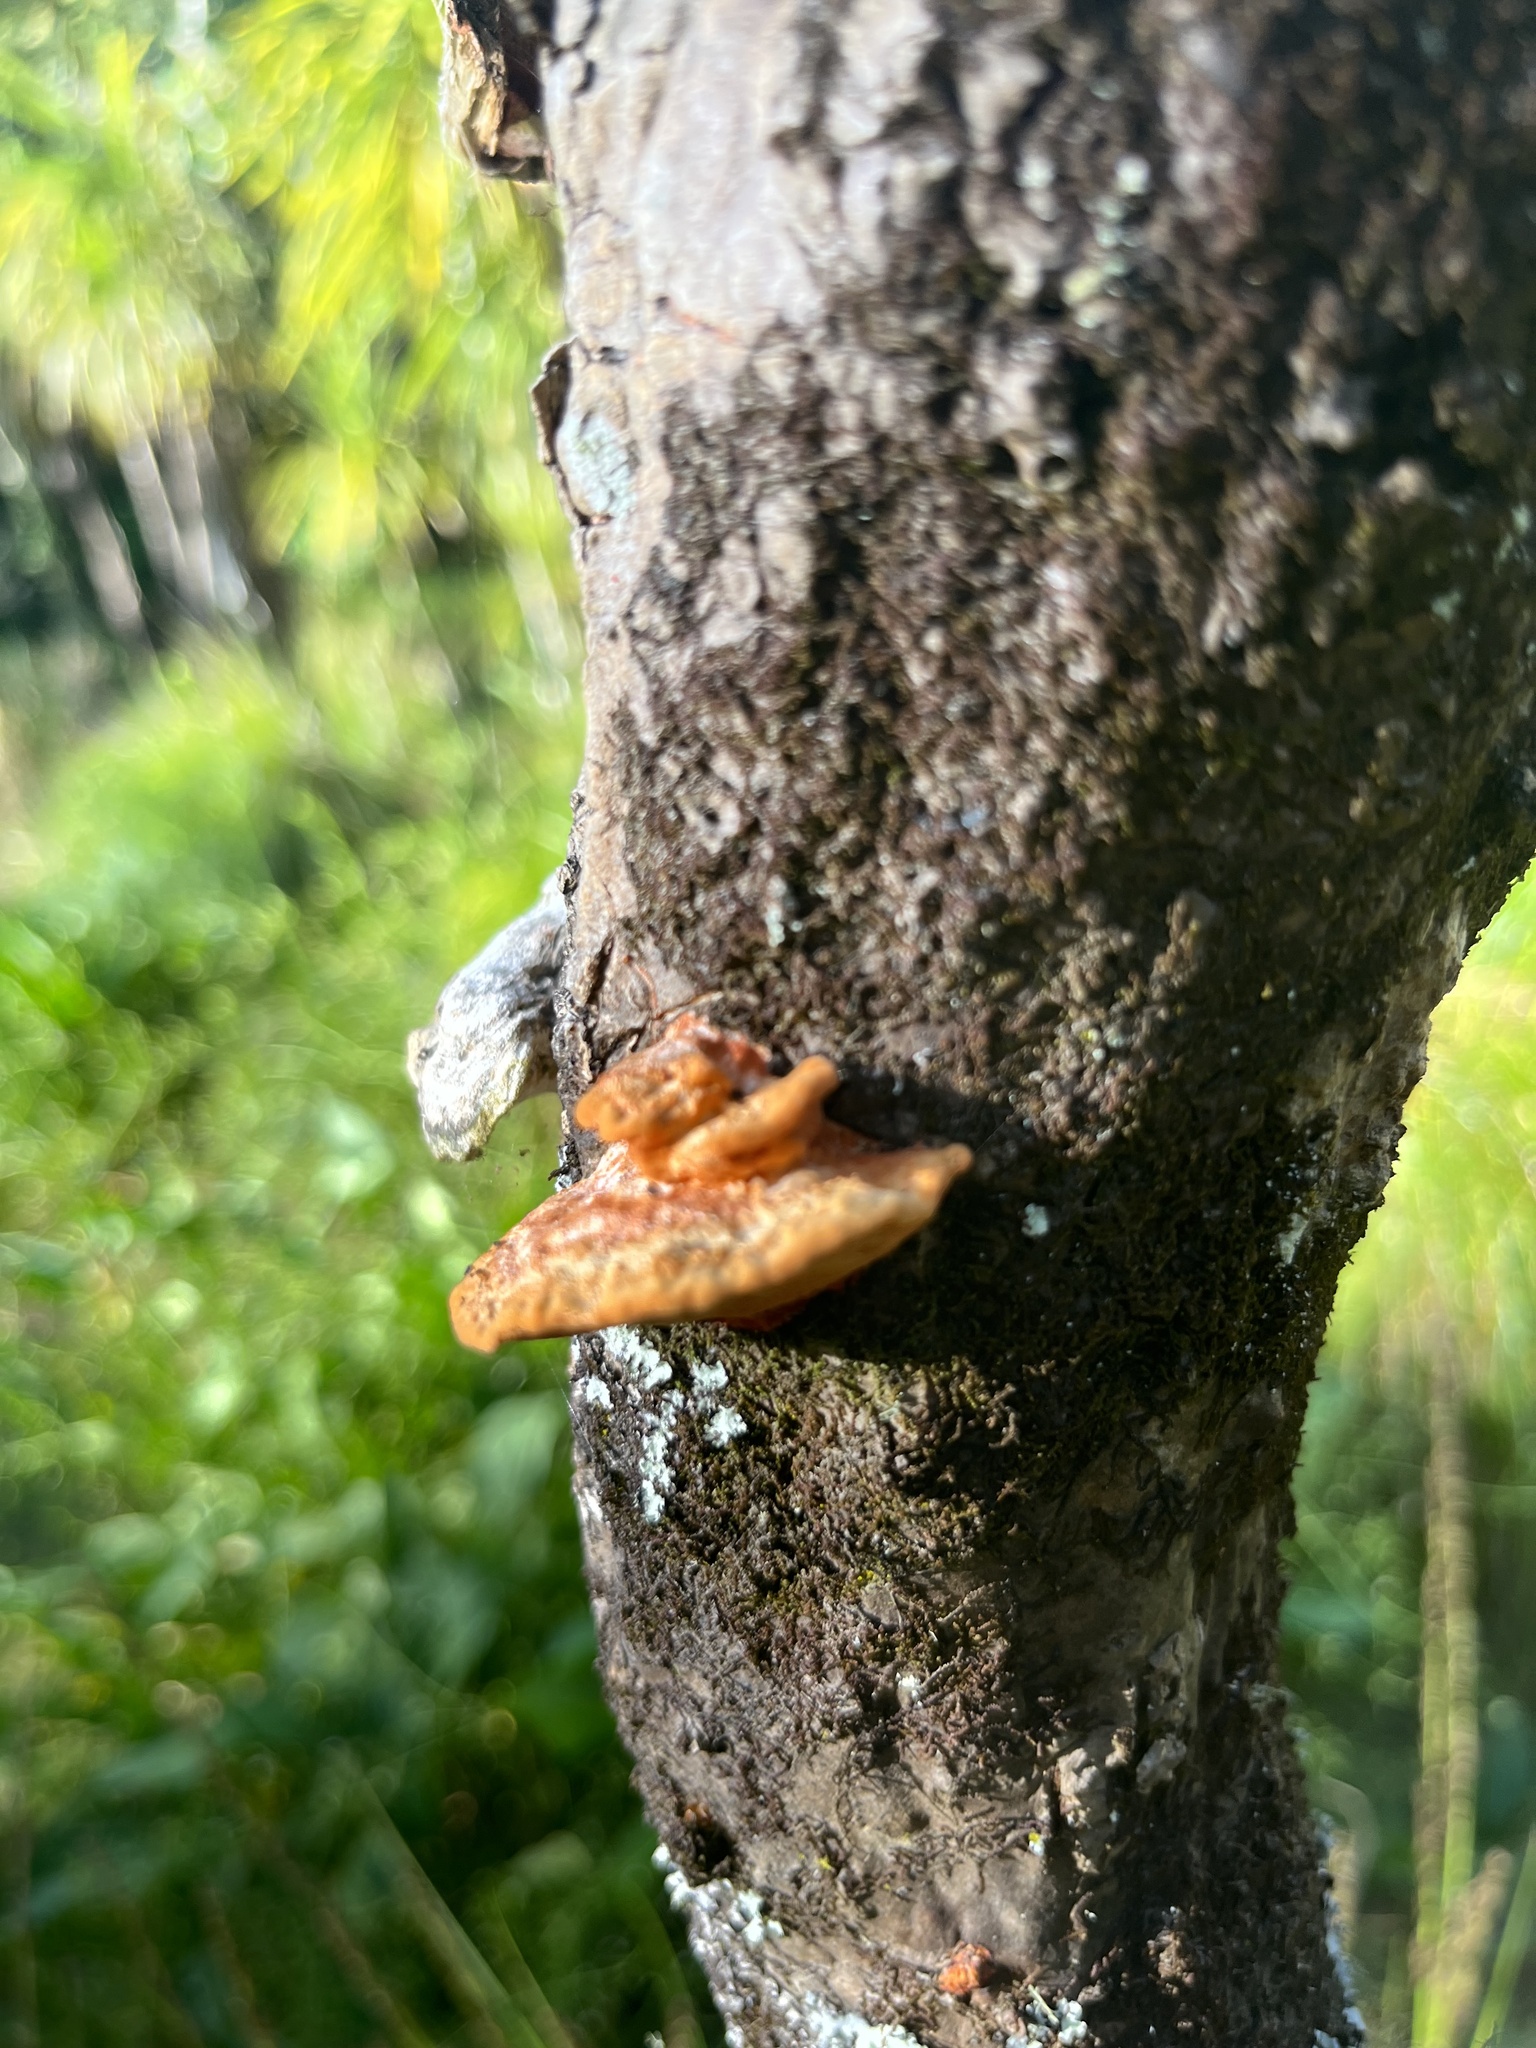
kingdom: Fungi
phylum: Basidiomycota
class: Agaricomycetes
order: Polyporales
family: Polyporaceae
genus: Trametes
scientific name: Trametes coccinea
